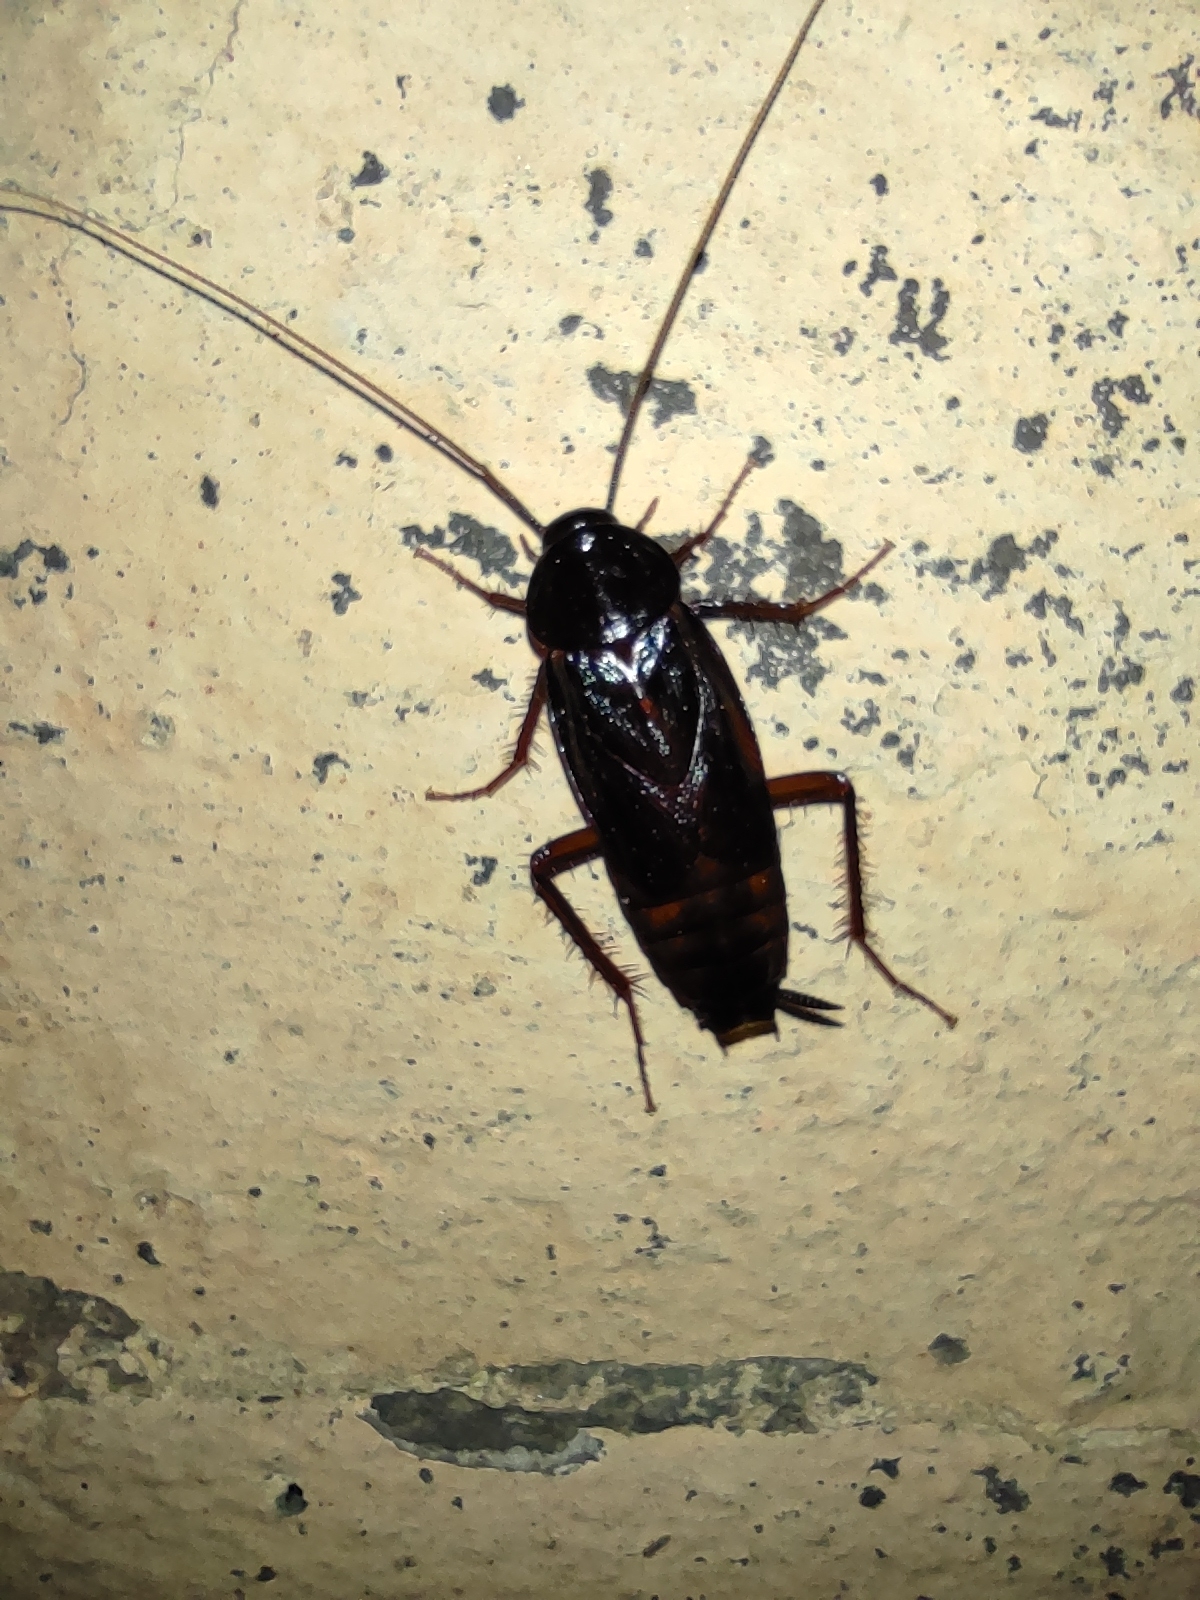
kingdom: Animalia
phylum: Arthropoda
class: Insecta
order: Blattodea
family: Blattidae
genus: Blatta
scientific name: Blatta orientalis
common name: Oriental cockroach
